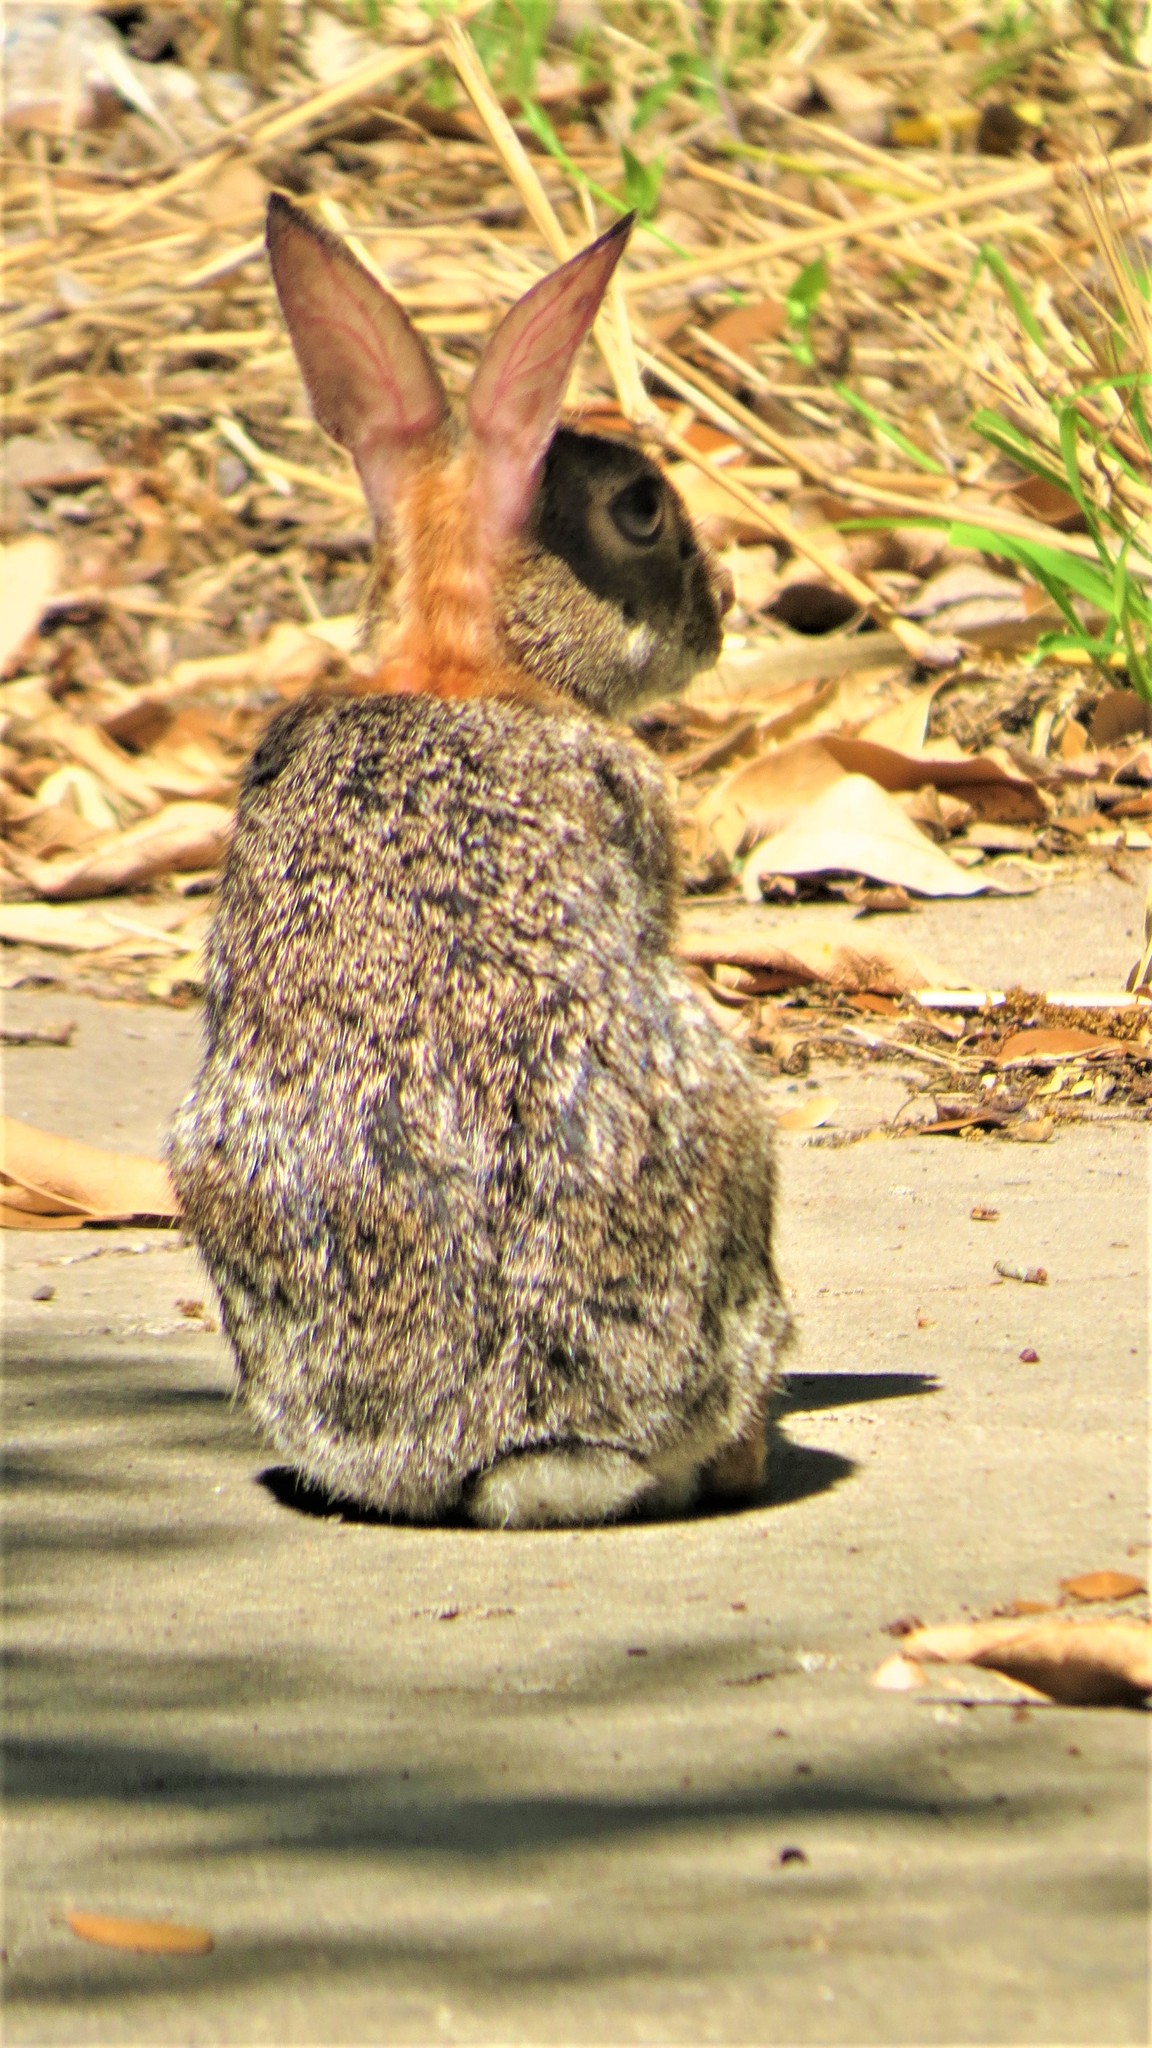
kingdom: Animalia
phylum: Chordata
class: Mammalia
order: Lagomorpha
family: Leporidae
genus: Sylvilagus
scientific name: Sylvilagus floridanus
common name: Eastern cottontail
